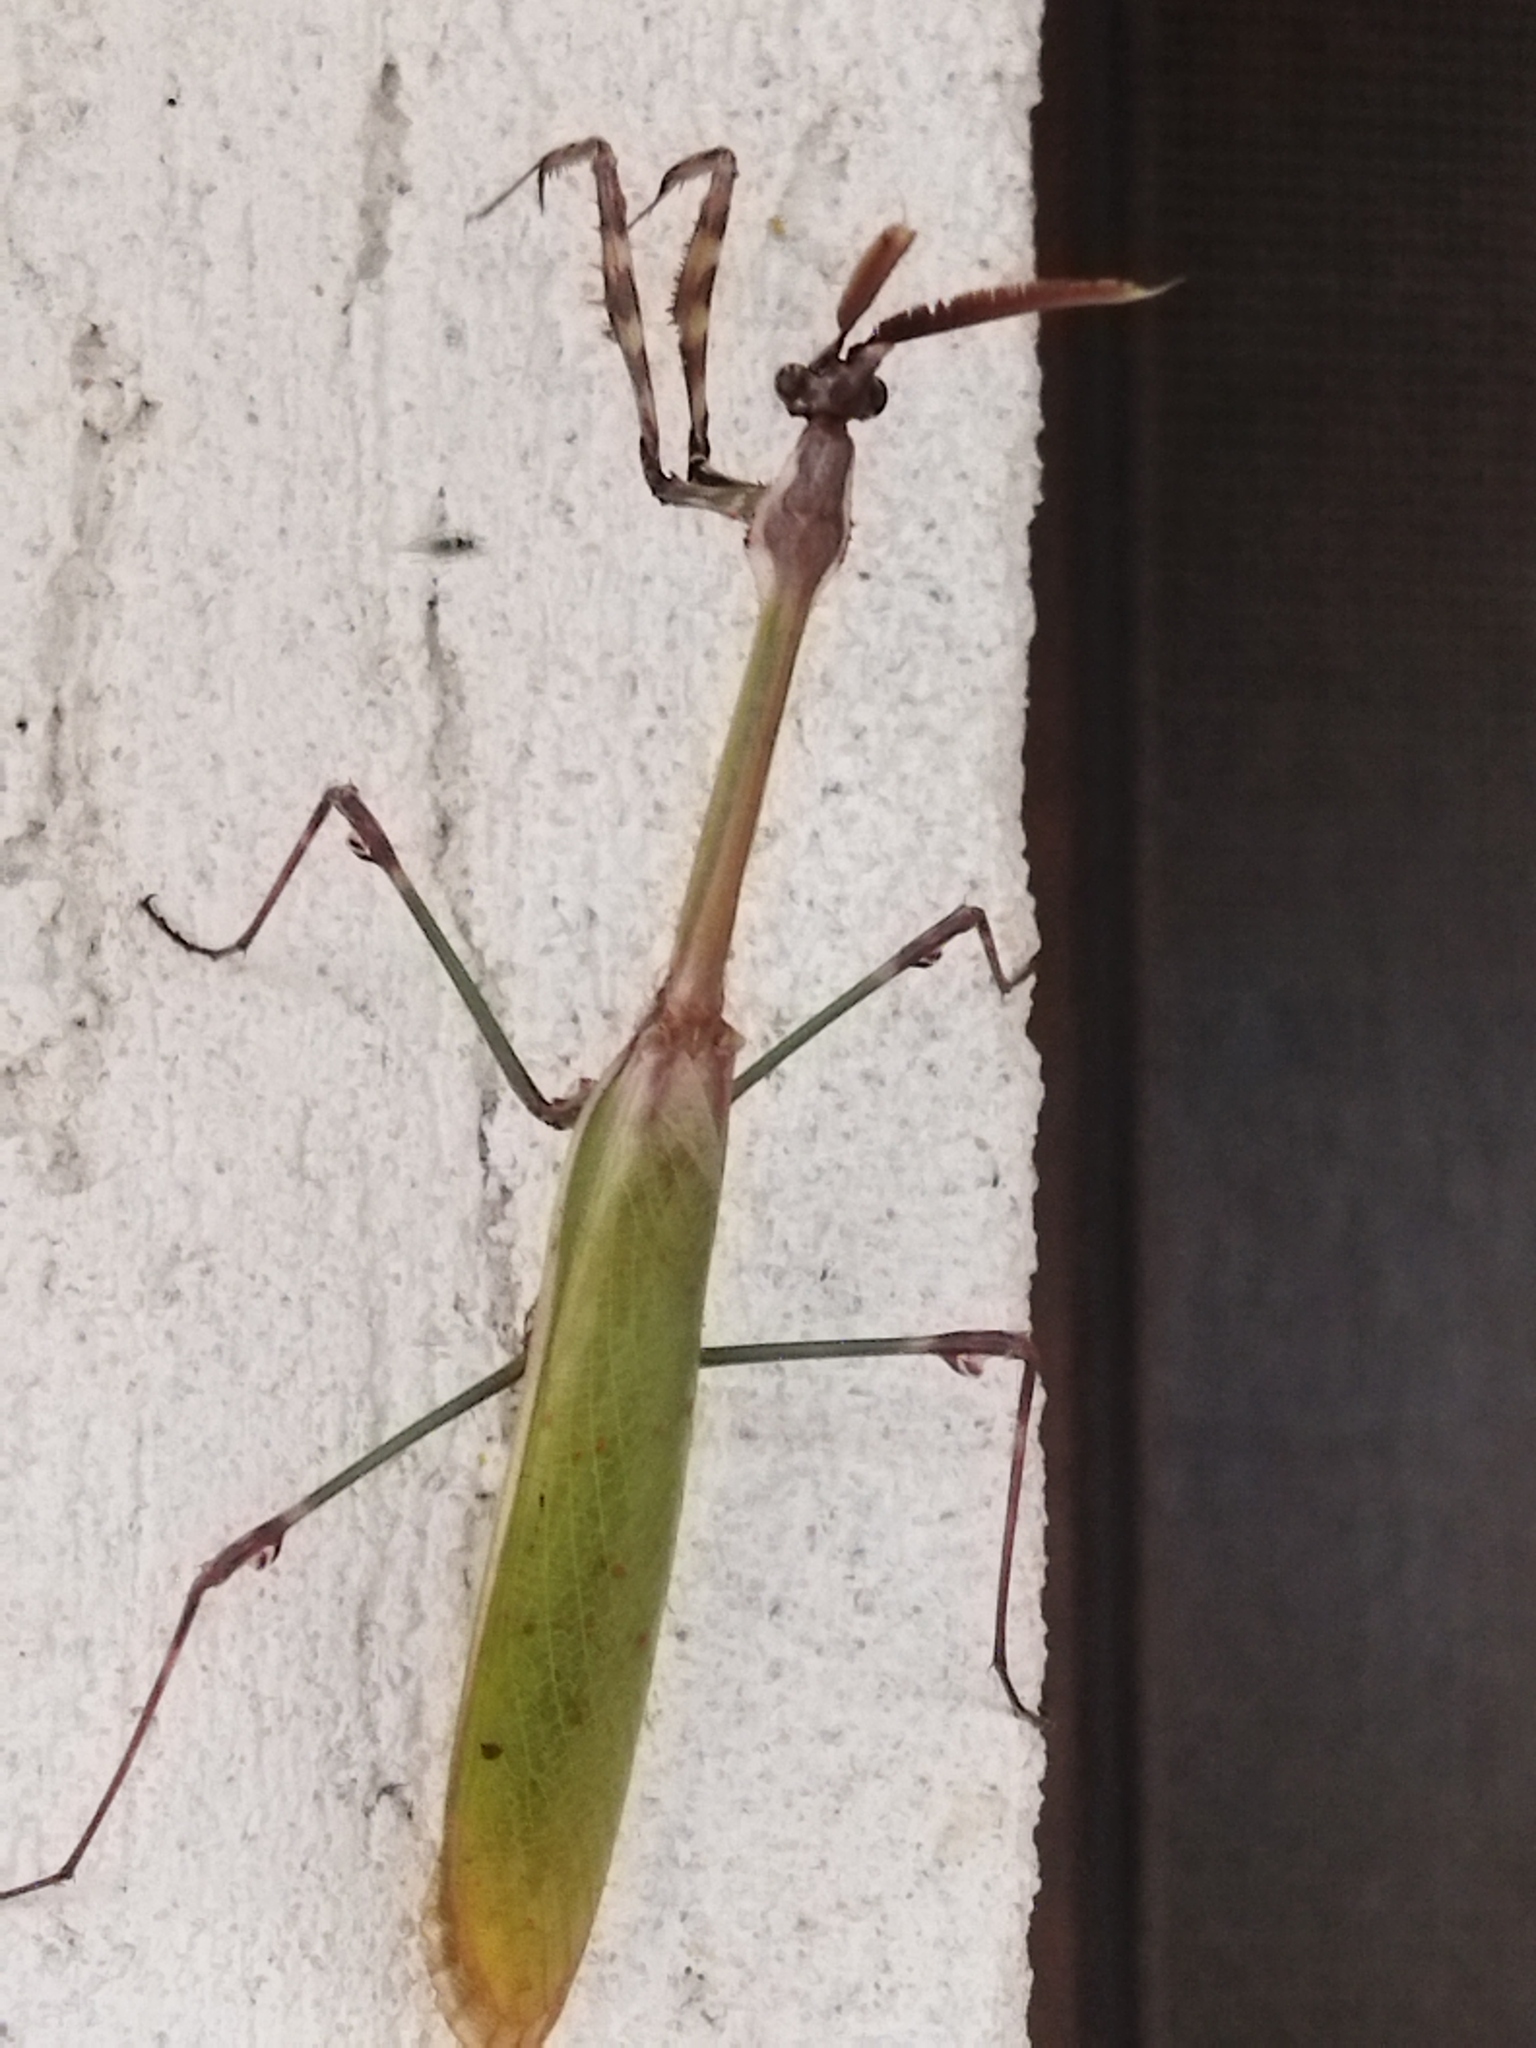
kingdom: Animalia
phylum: Arthropoda
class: Insecta
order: Mantodea
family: Empusidae
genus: Empusa
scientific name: Empusa fasciata
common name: Devil's mare
